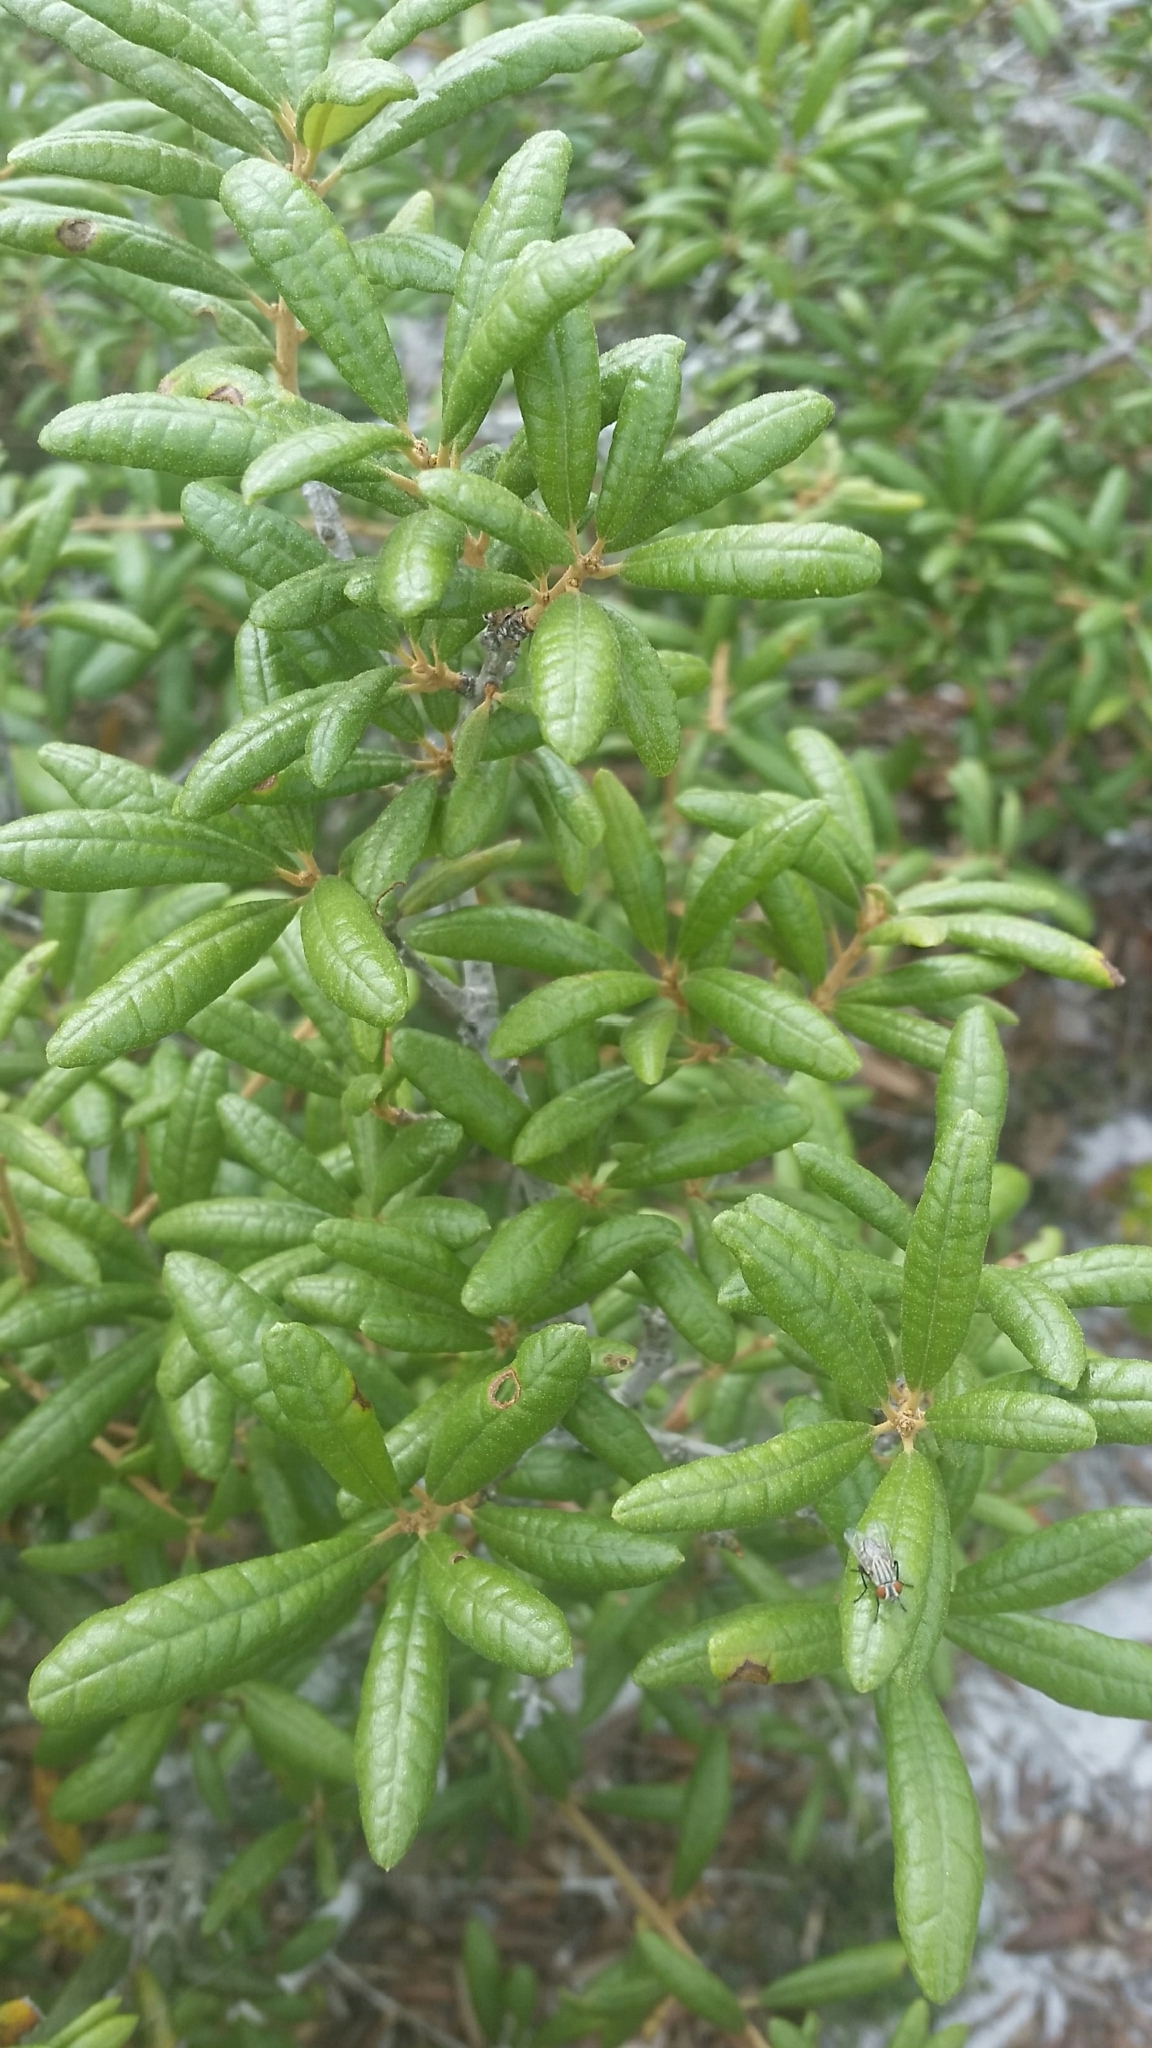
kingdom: Plantae
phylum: Tracheophyta
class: Magnoliopsida
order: Fagales
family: Fagaceae
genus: Quercus
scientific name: Quercus geminata
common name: Sand live oak
